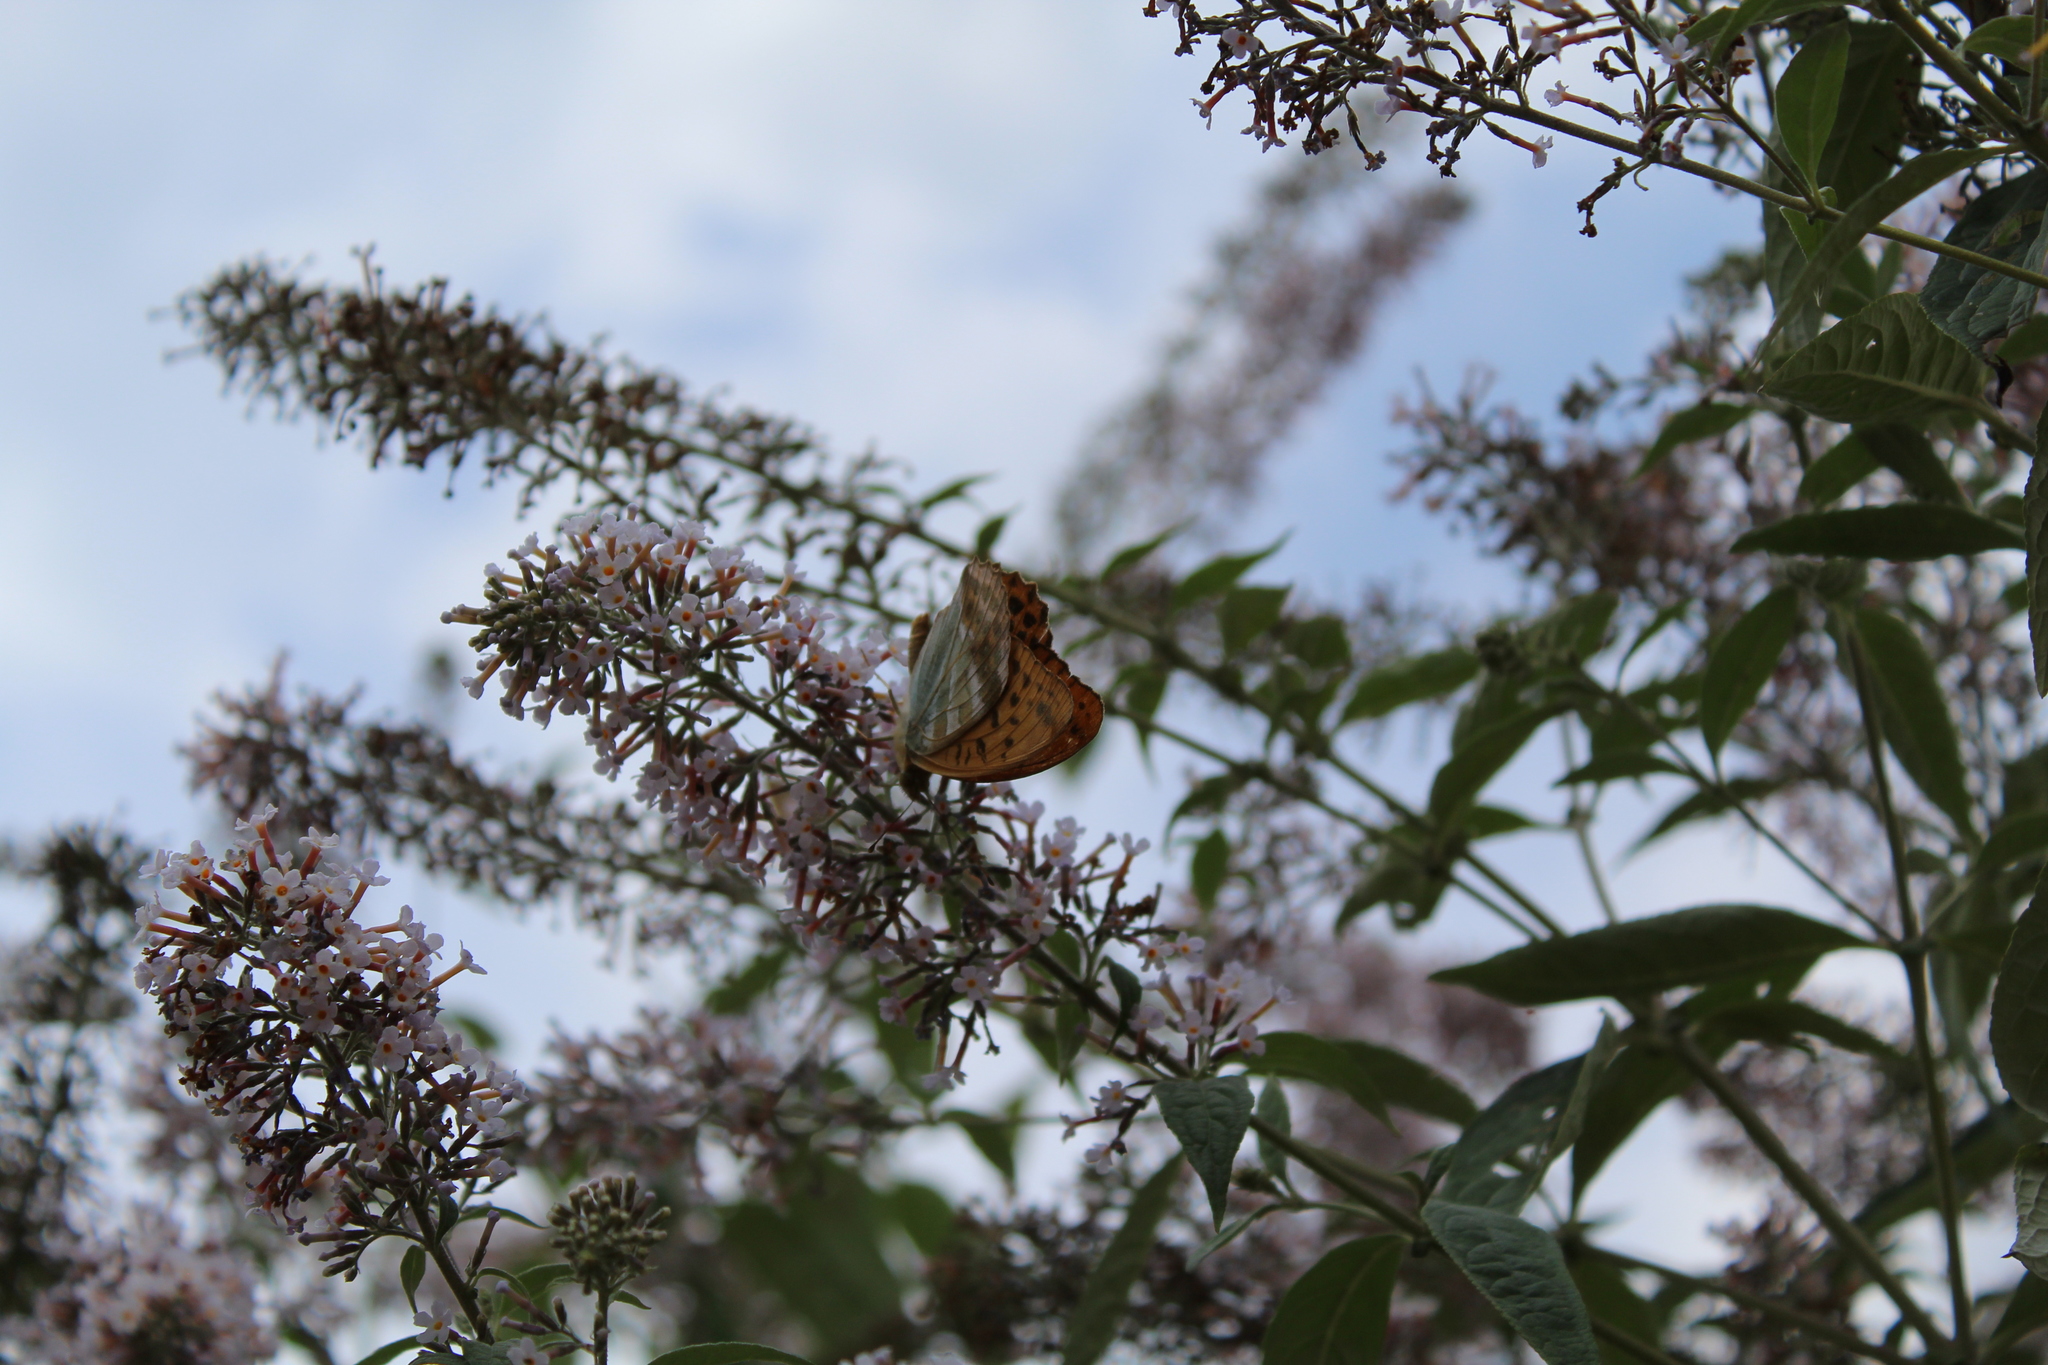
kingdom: Animalia
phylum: Arthropoda
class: Insecta
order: Lepidoptera
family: Nymphalidae
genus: Argynnis
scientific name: Argynnis paphia
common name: Silver-washed fritillary
